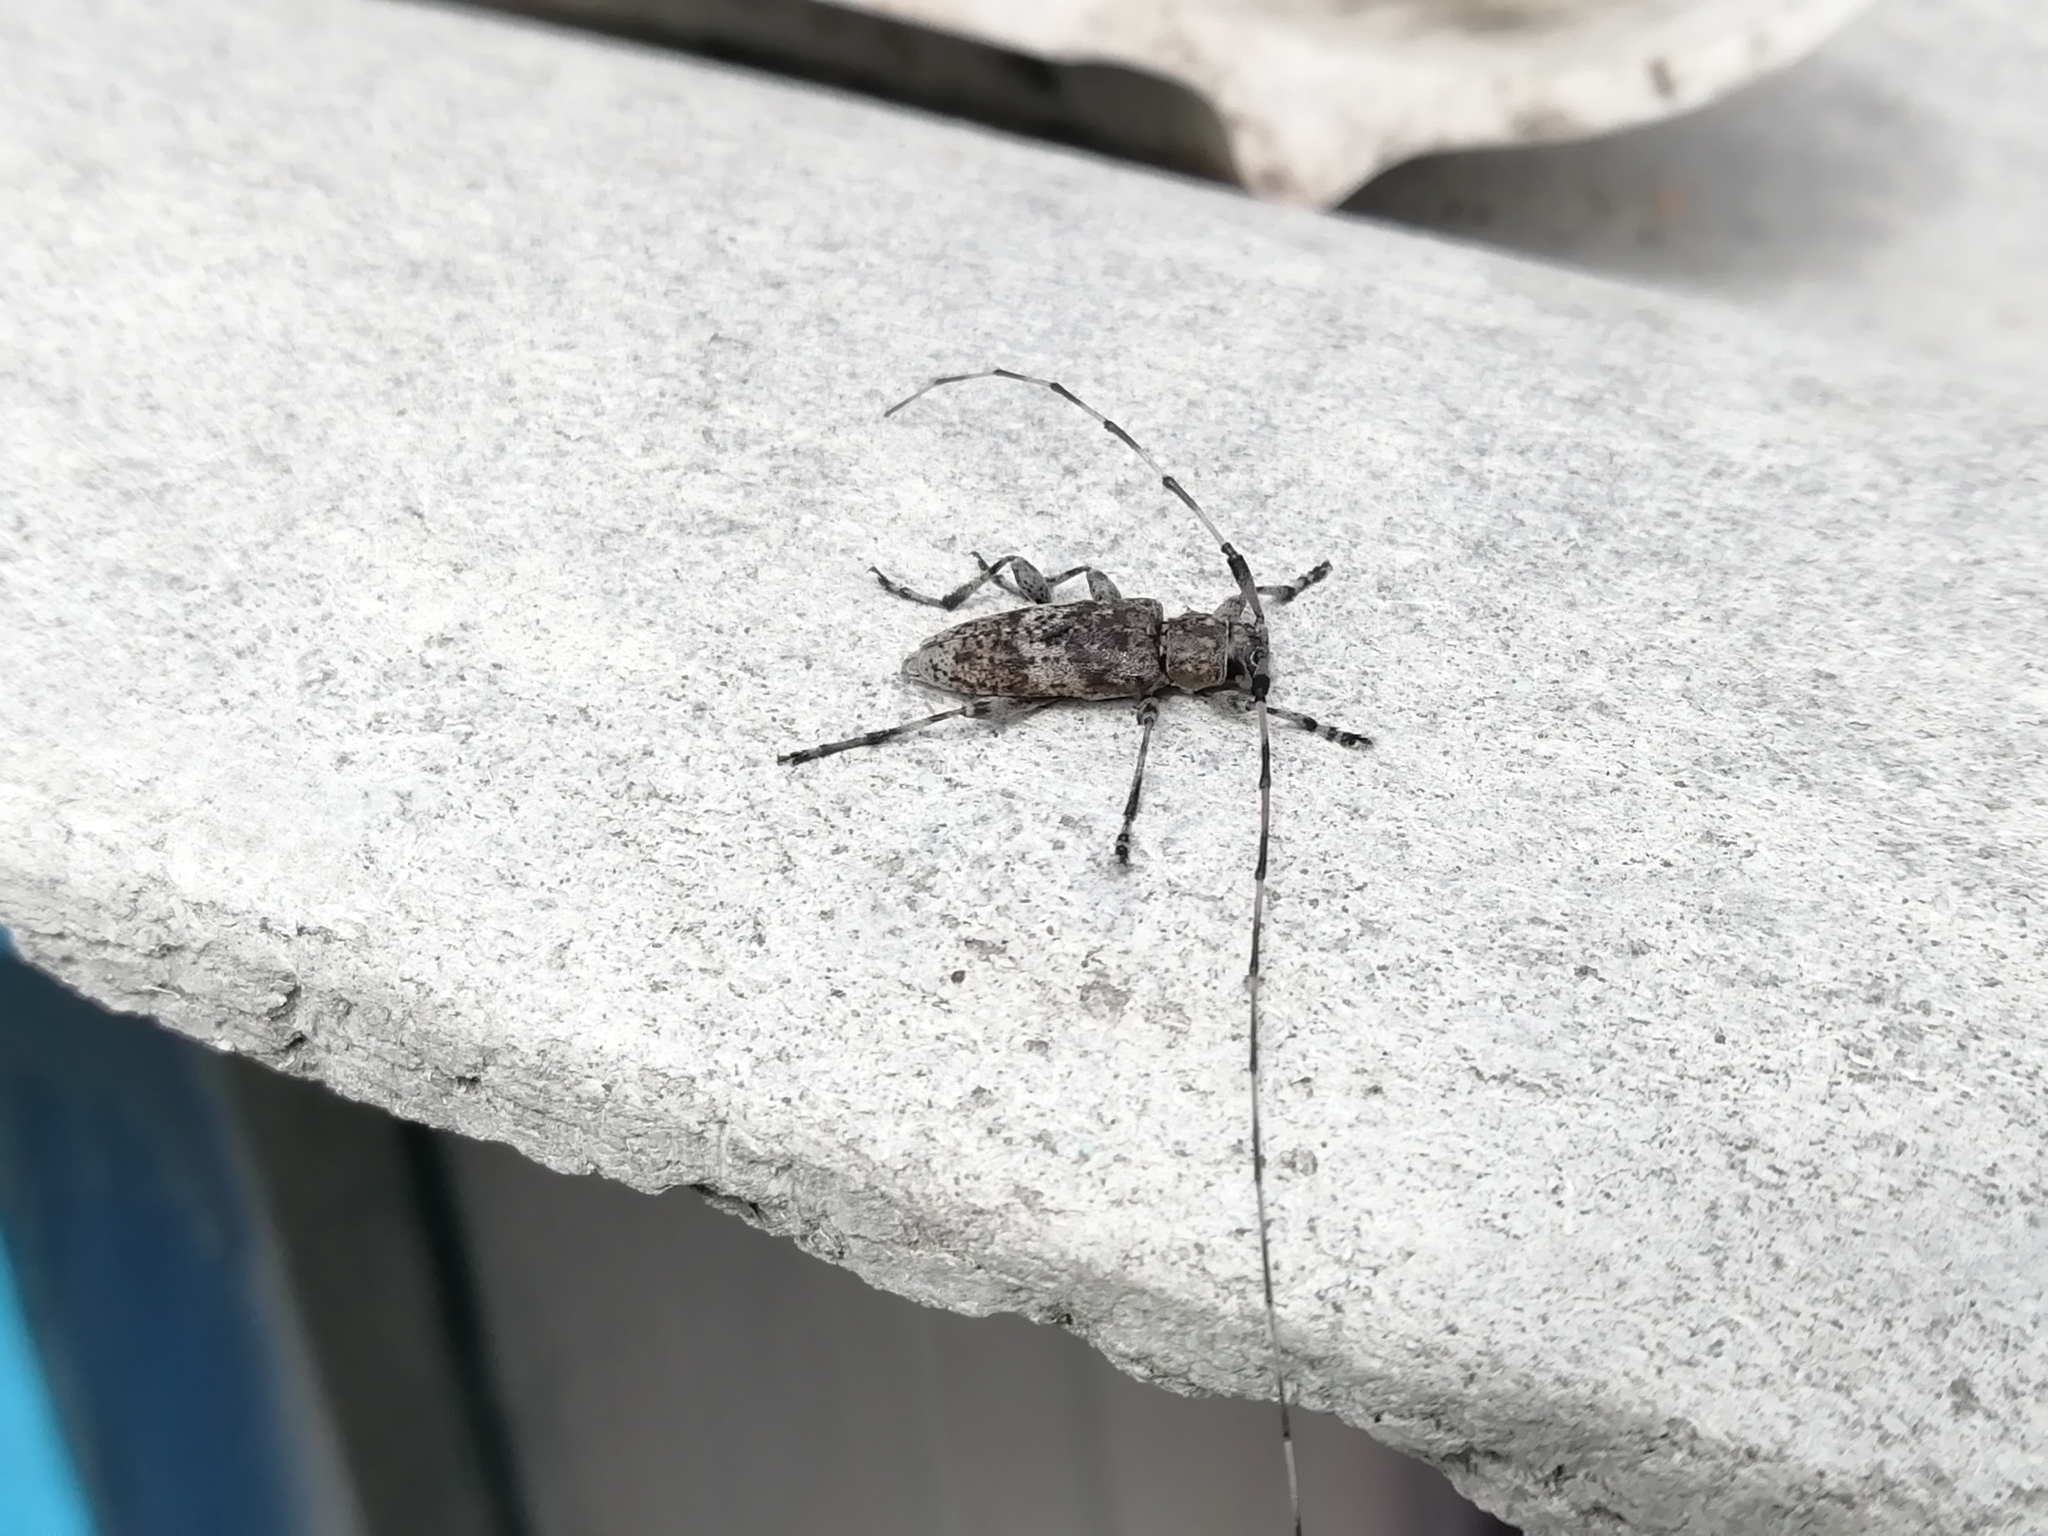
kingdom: Animalia
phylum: Arthropoda
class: Insecta
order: Coleoptera
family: Cerambycidae
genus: Acanthocinus
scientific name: Acanthocinus griseus
